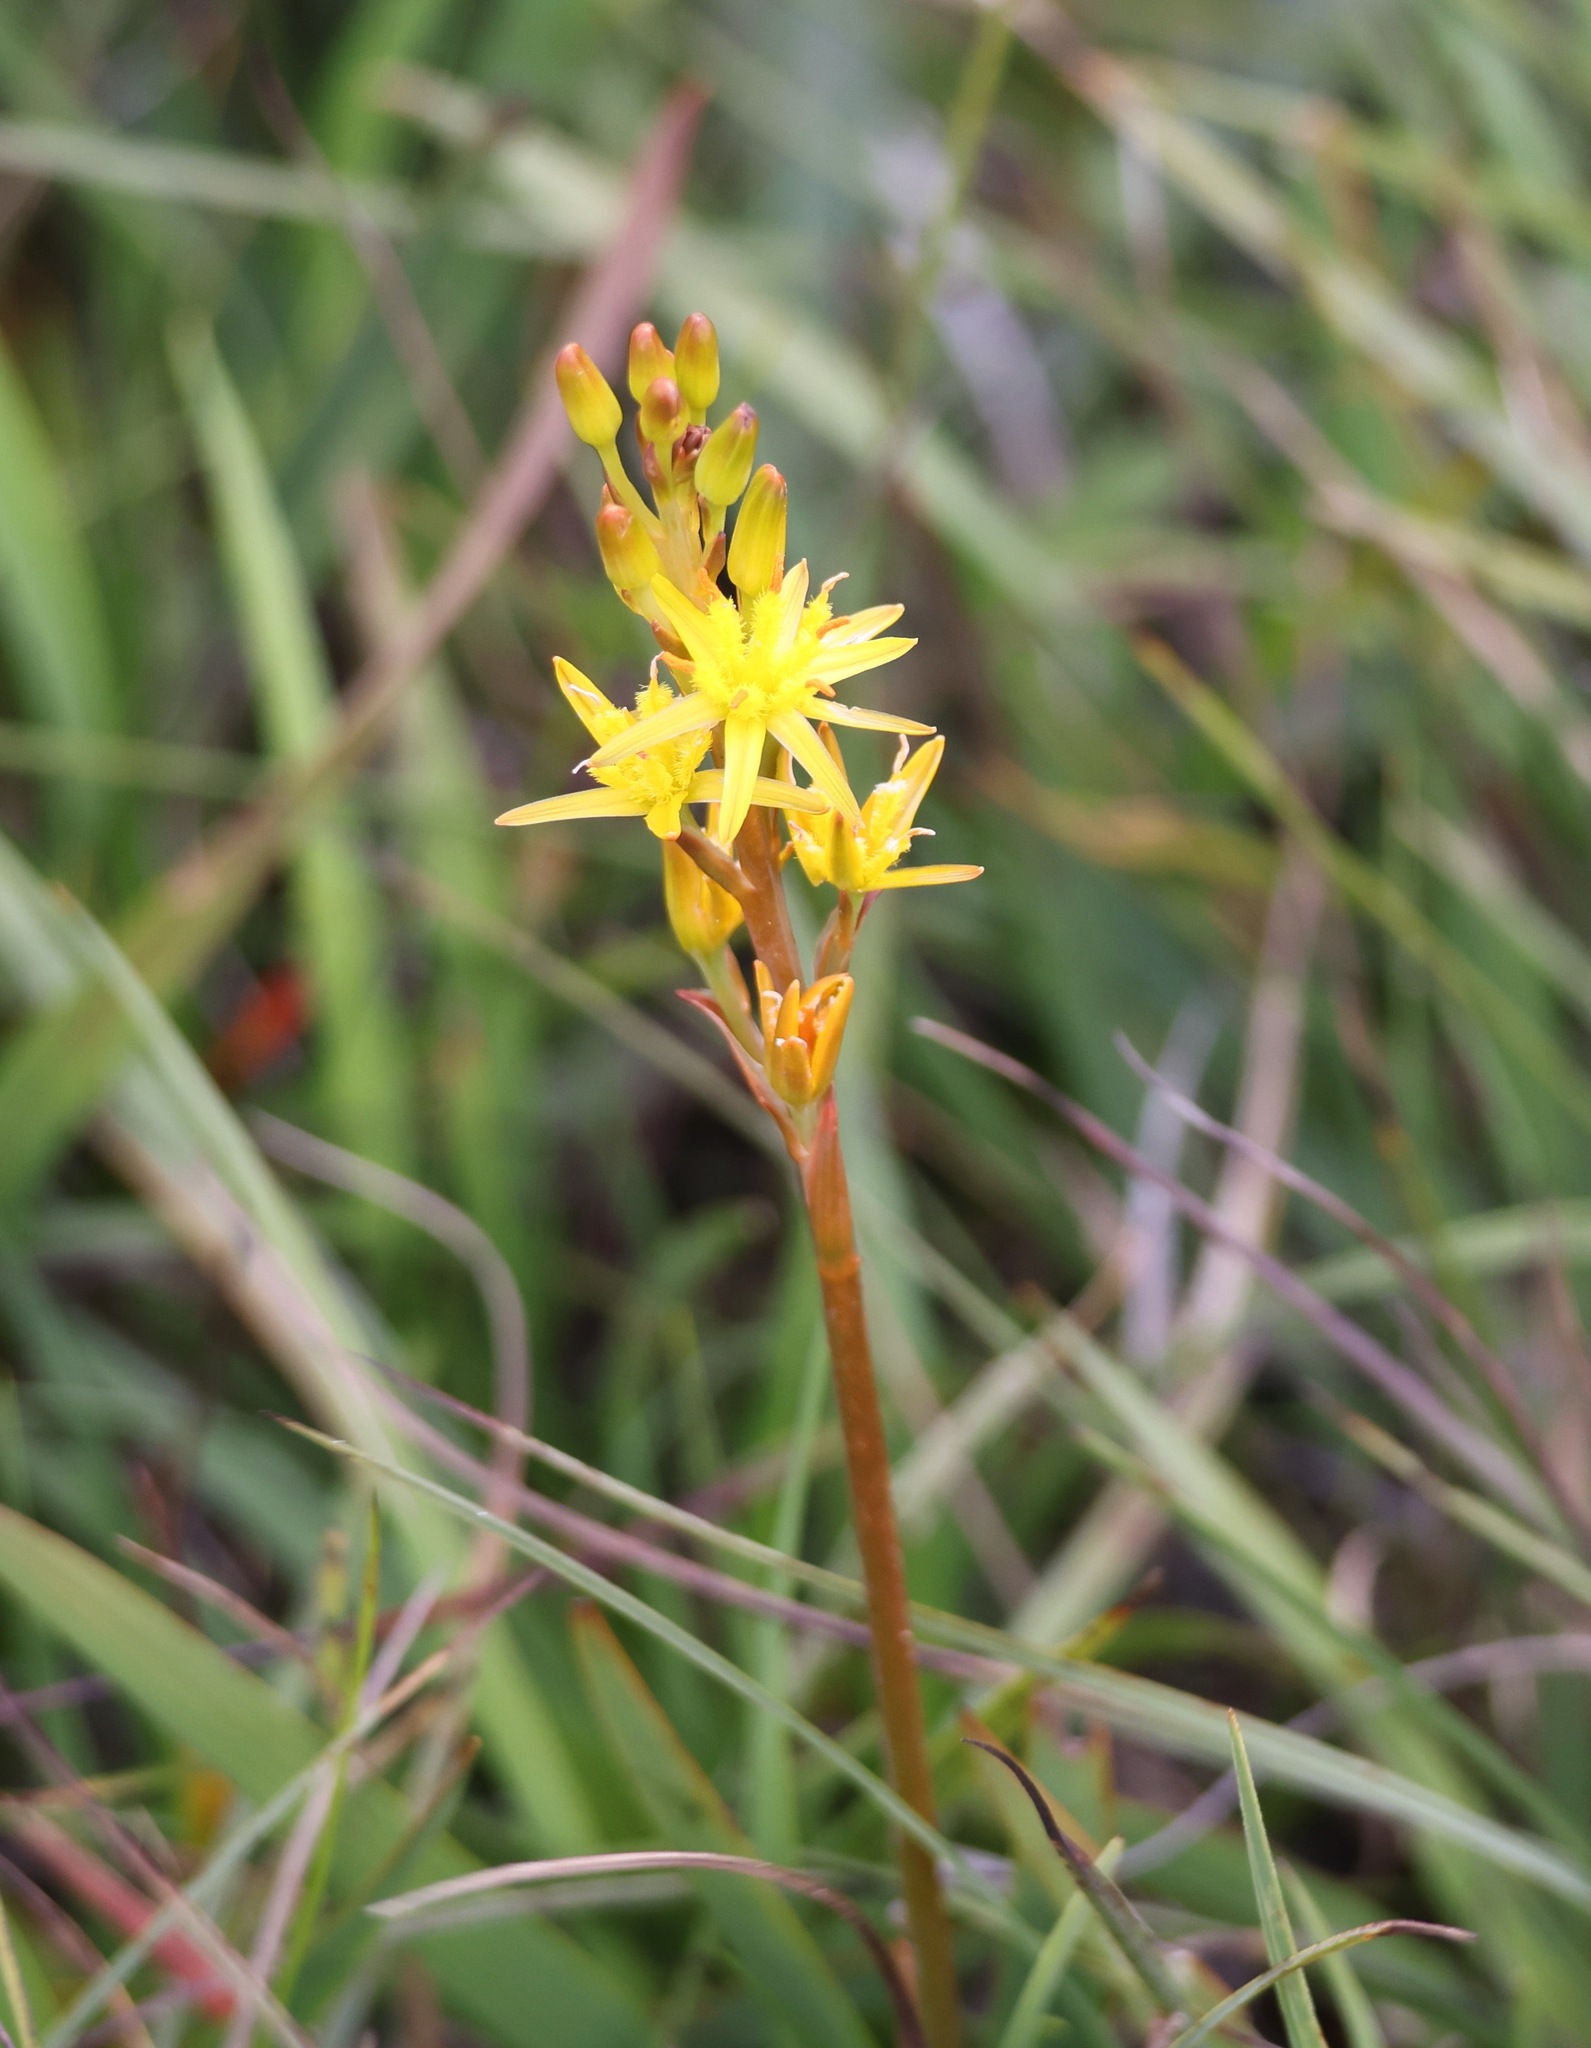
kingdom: Plantae
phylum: Tracheophyta
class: Liliopsida
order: Dioscoreales
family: Nartheciaceae
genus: Narthecium
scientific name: Narthecium ossifragum
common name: Bog asphodel
